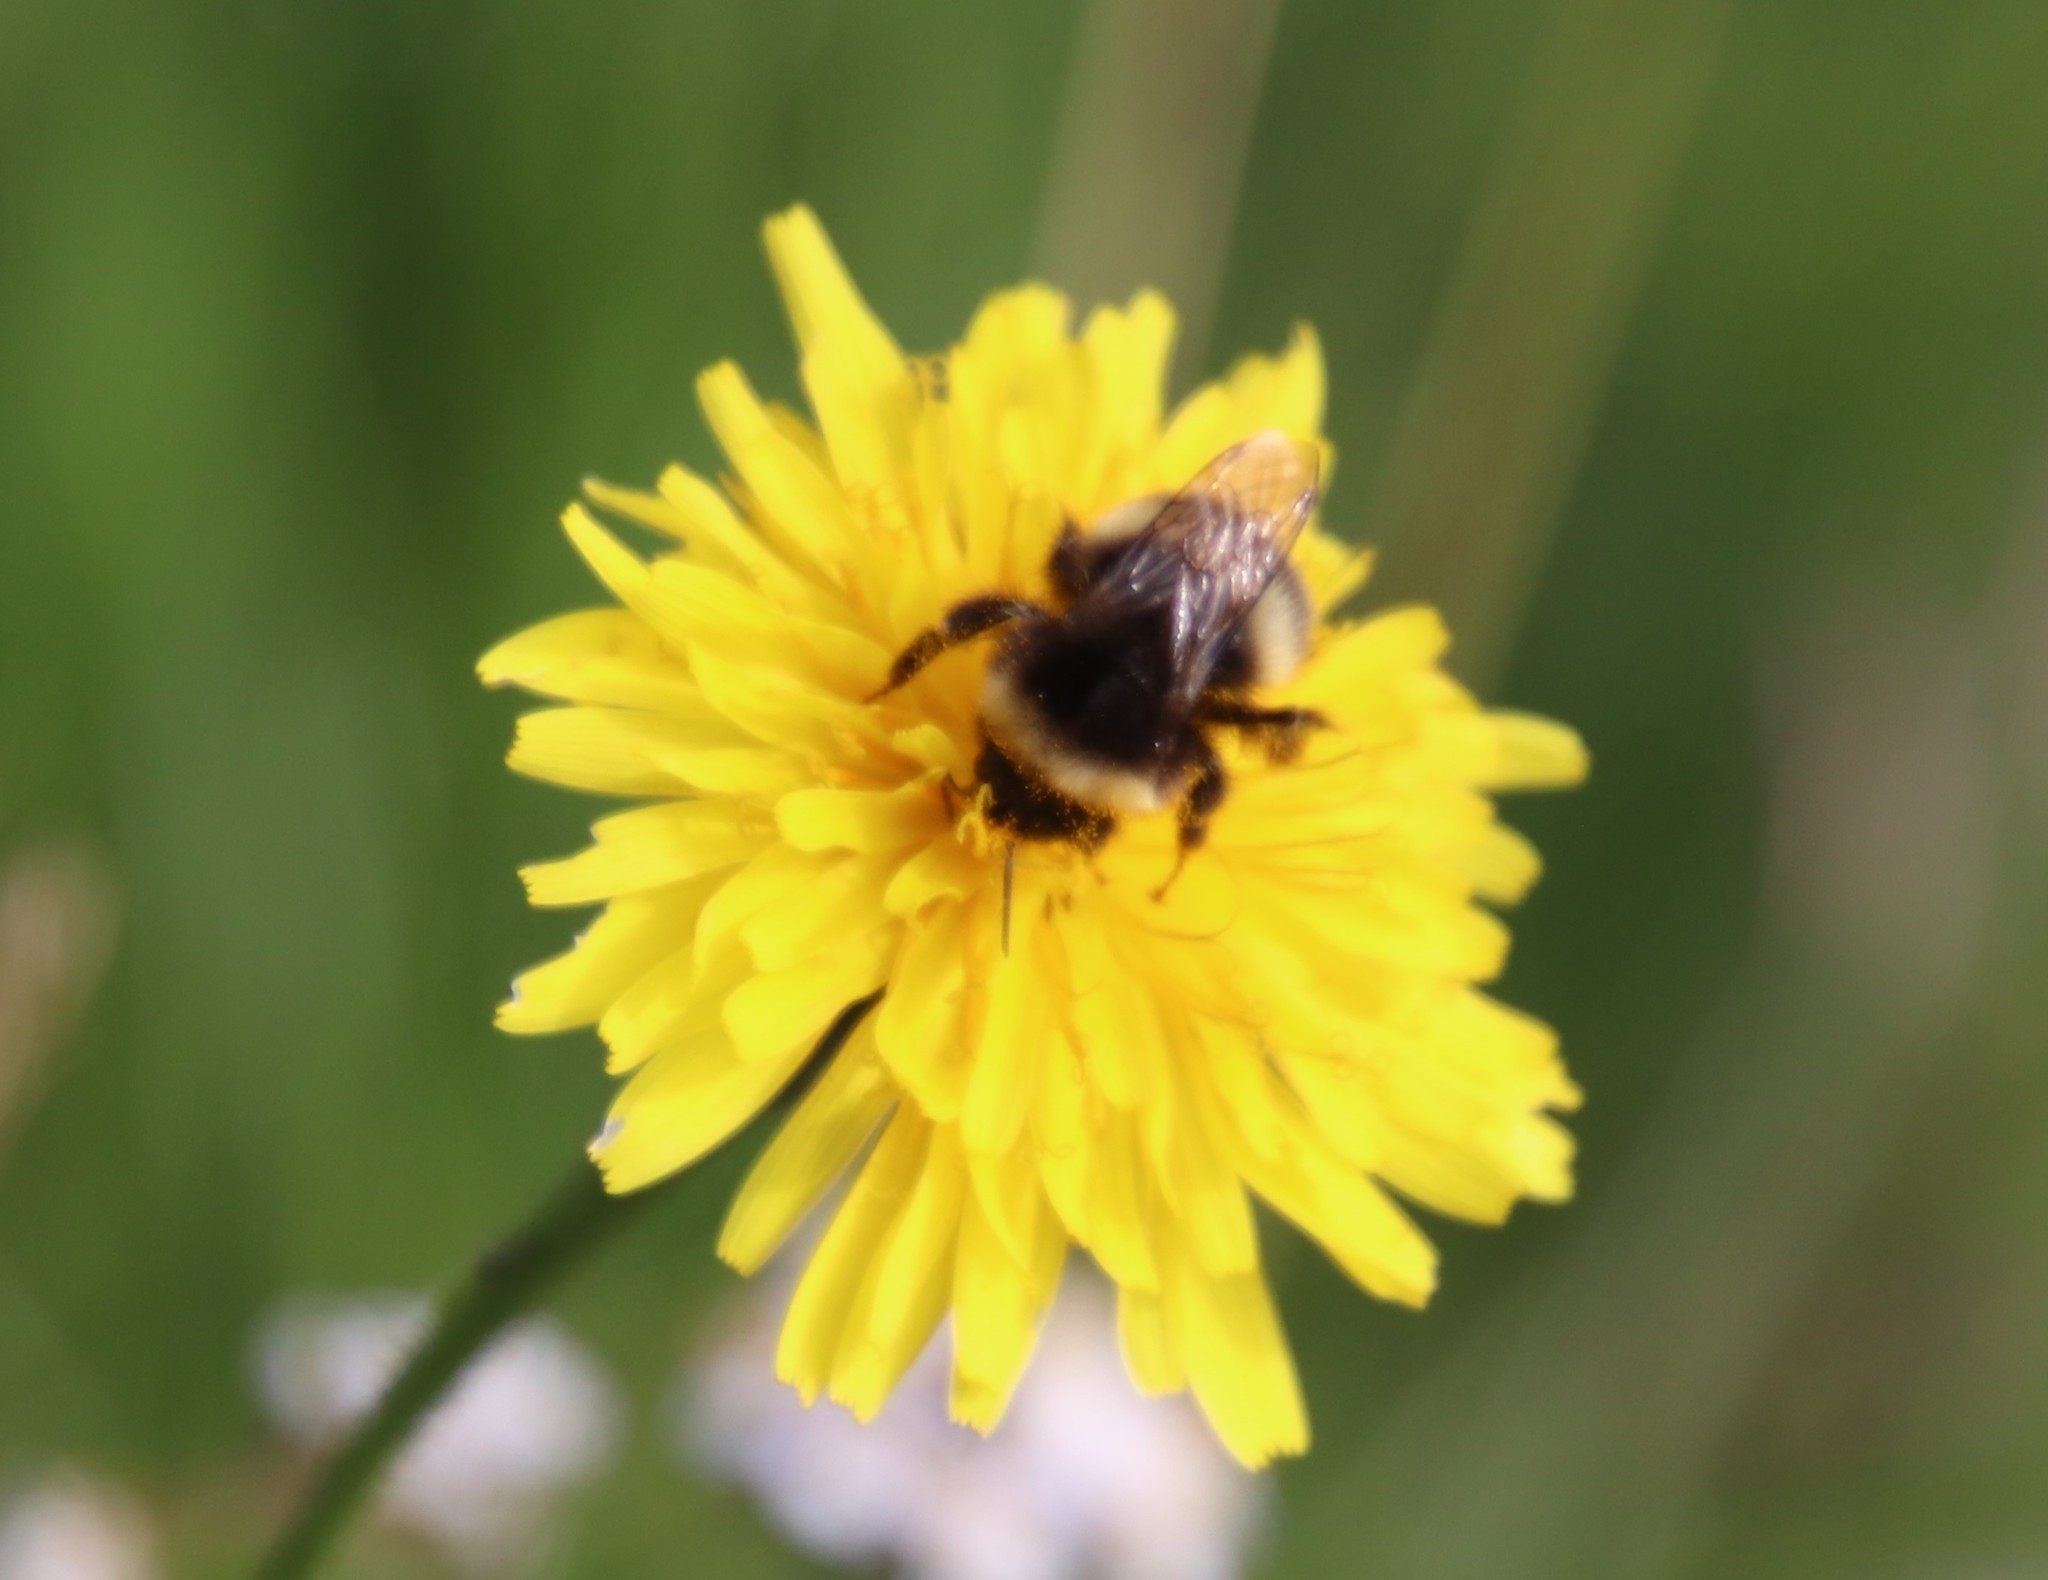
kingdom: Animalia
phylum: Arthropoda
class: Insecta
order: Hymenoptera
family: Apidae
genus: Bombus
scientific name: Bombus lucorum
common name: White-tailed bumblebee
